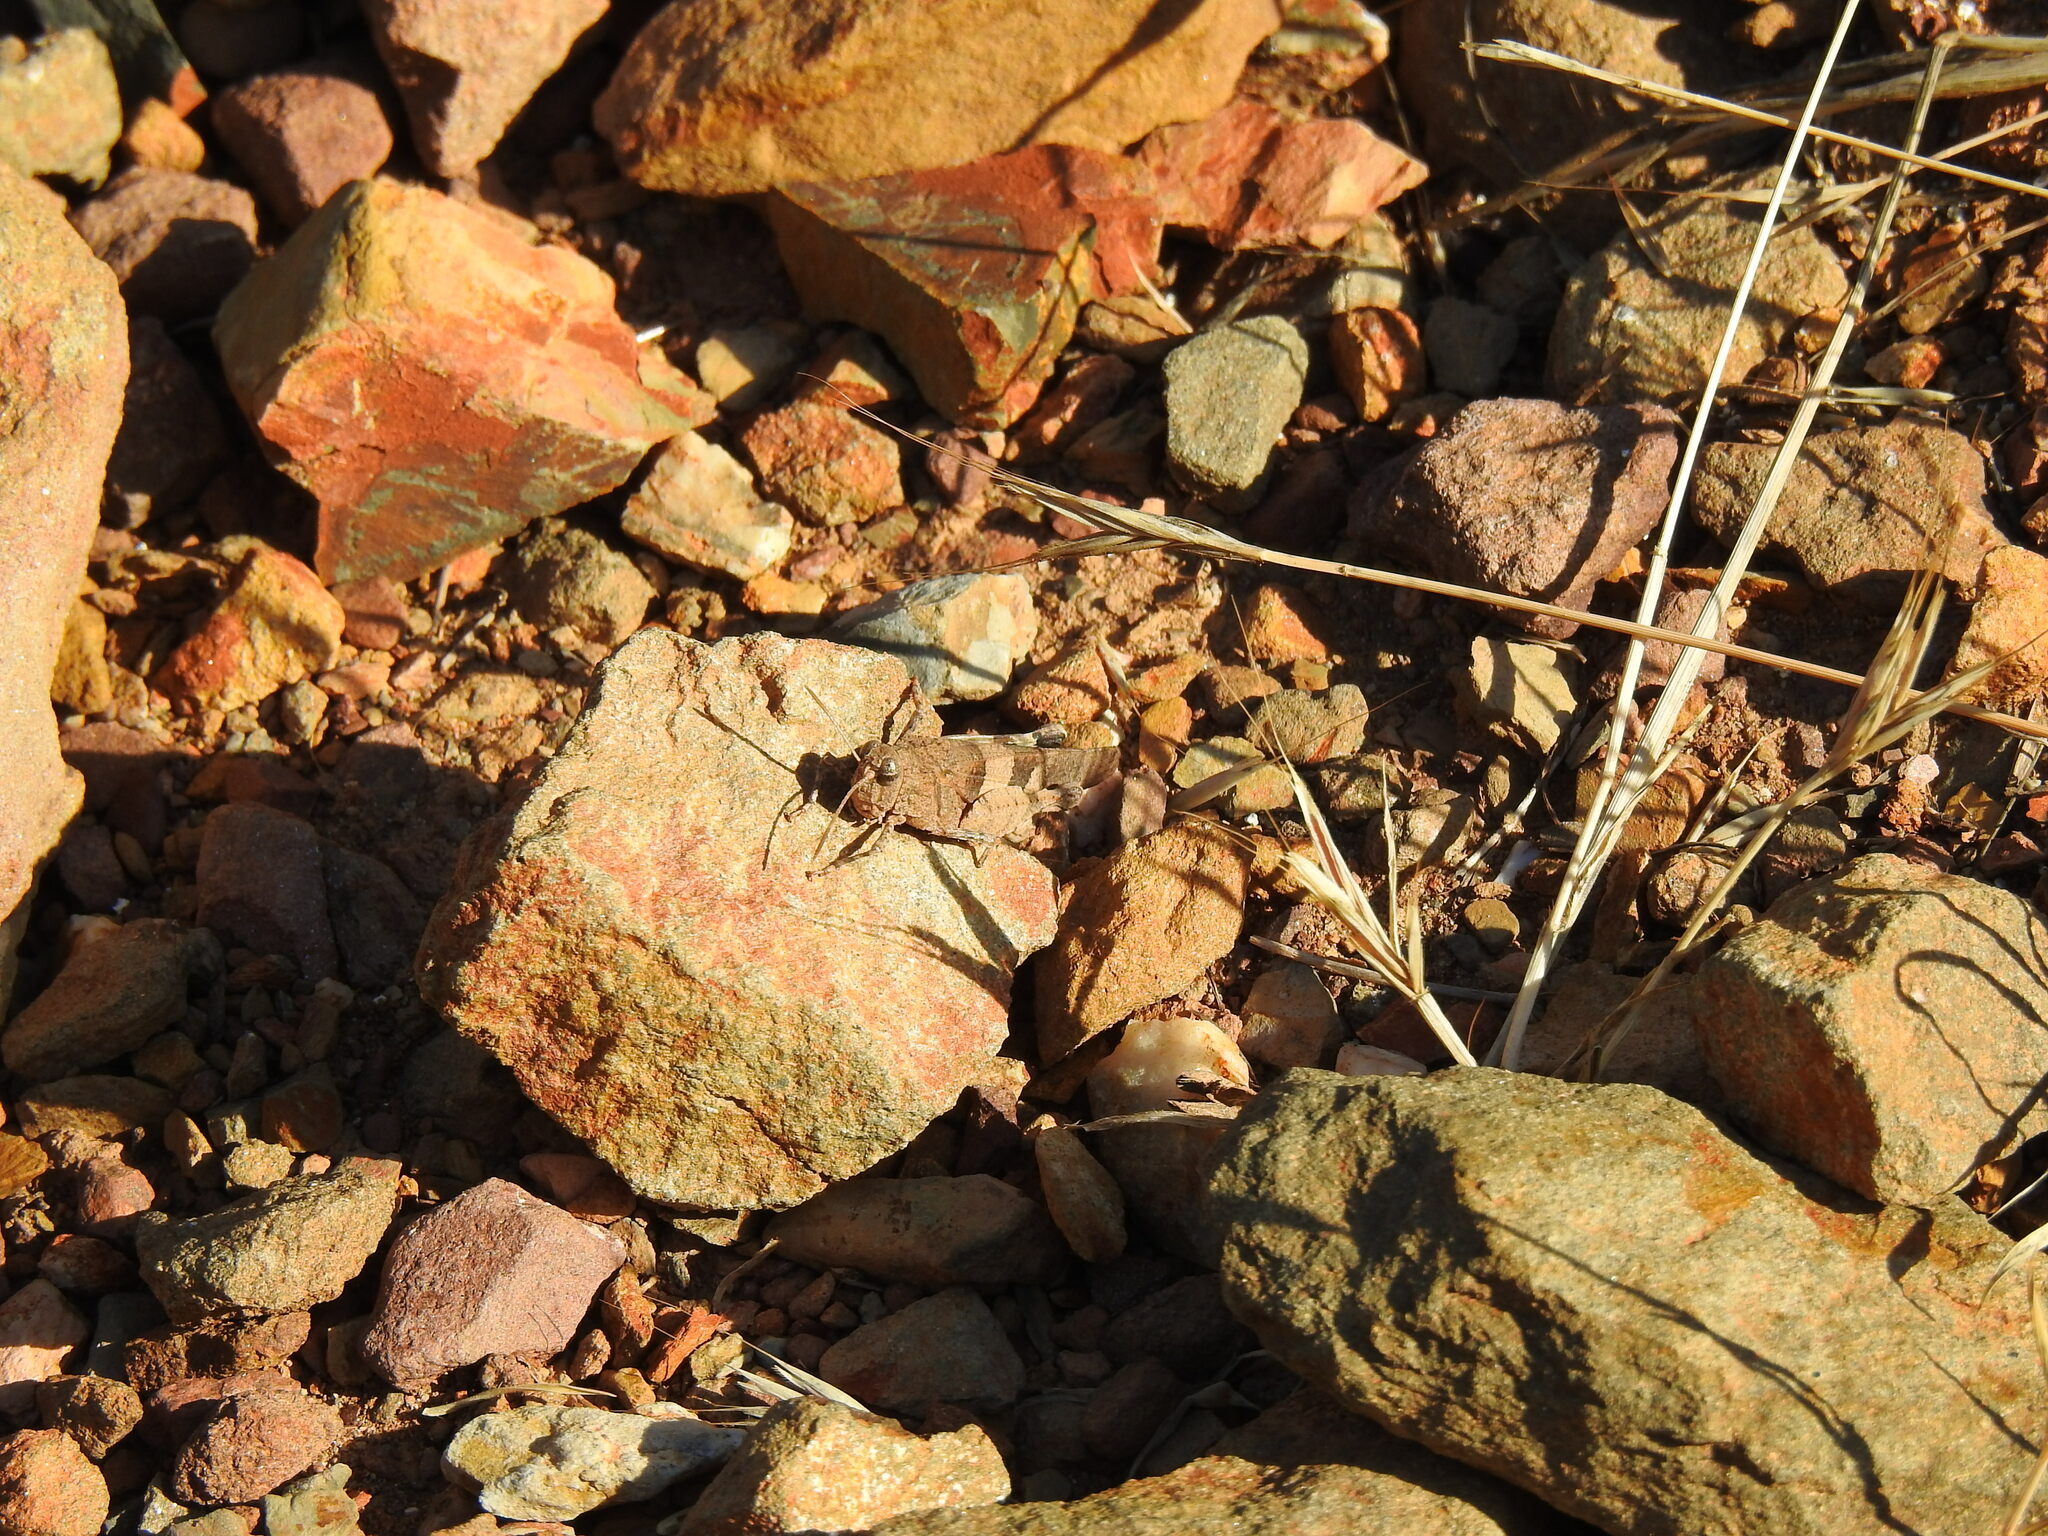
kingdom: Animalia
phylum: Arthropoda
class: Insecta
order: Orthoptera
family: Acrididae
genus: Oedipoda
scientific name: Oedipoda caerulescens
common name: Blue-winged grasshopper
